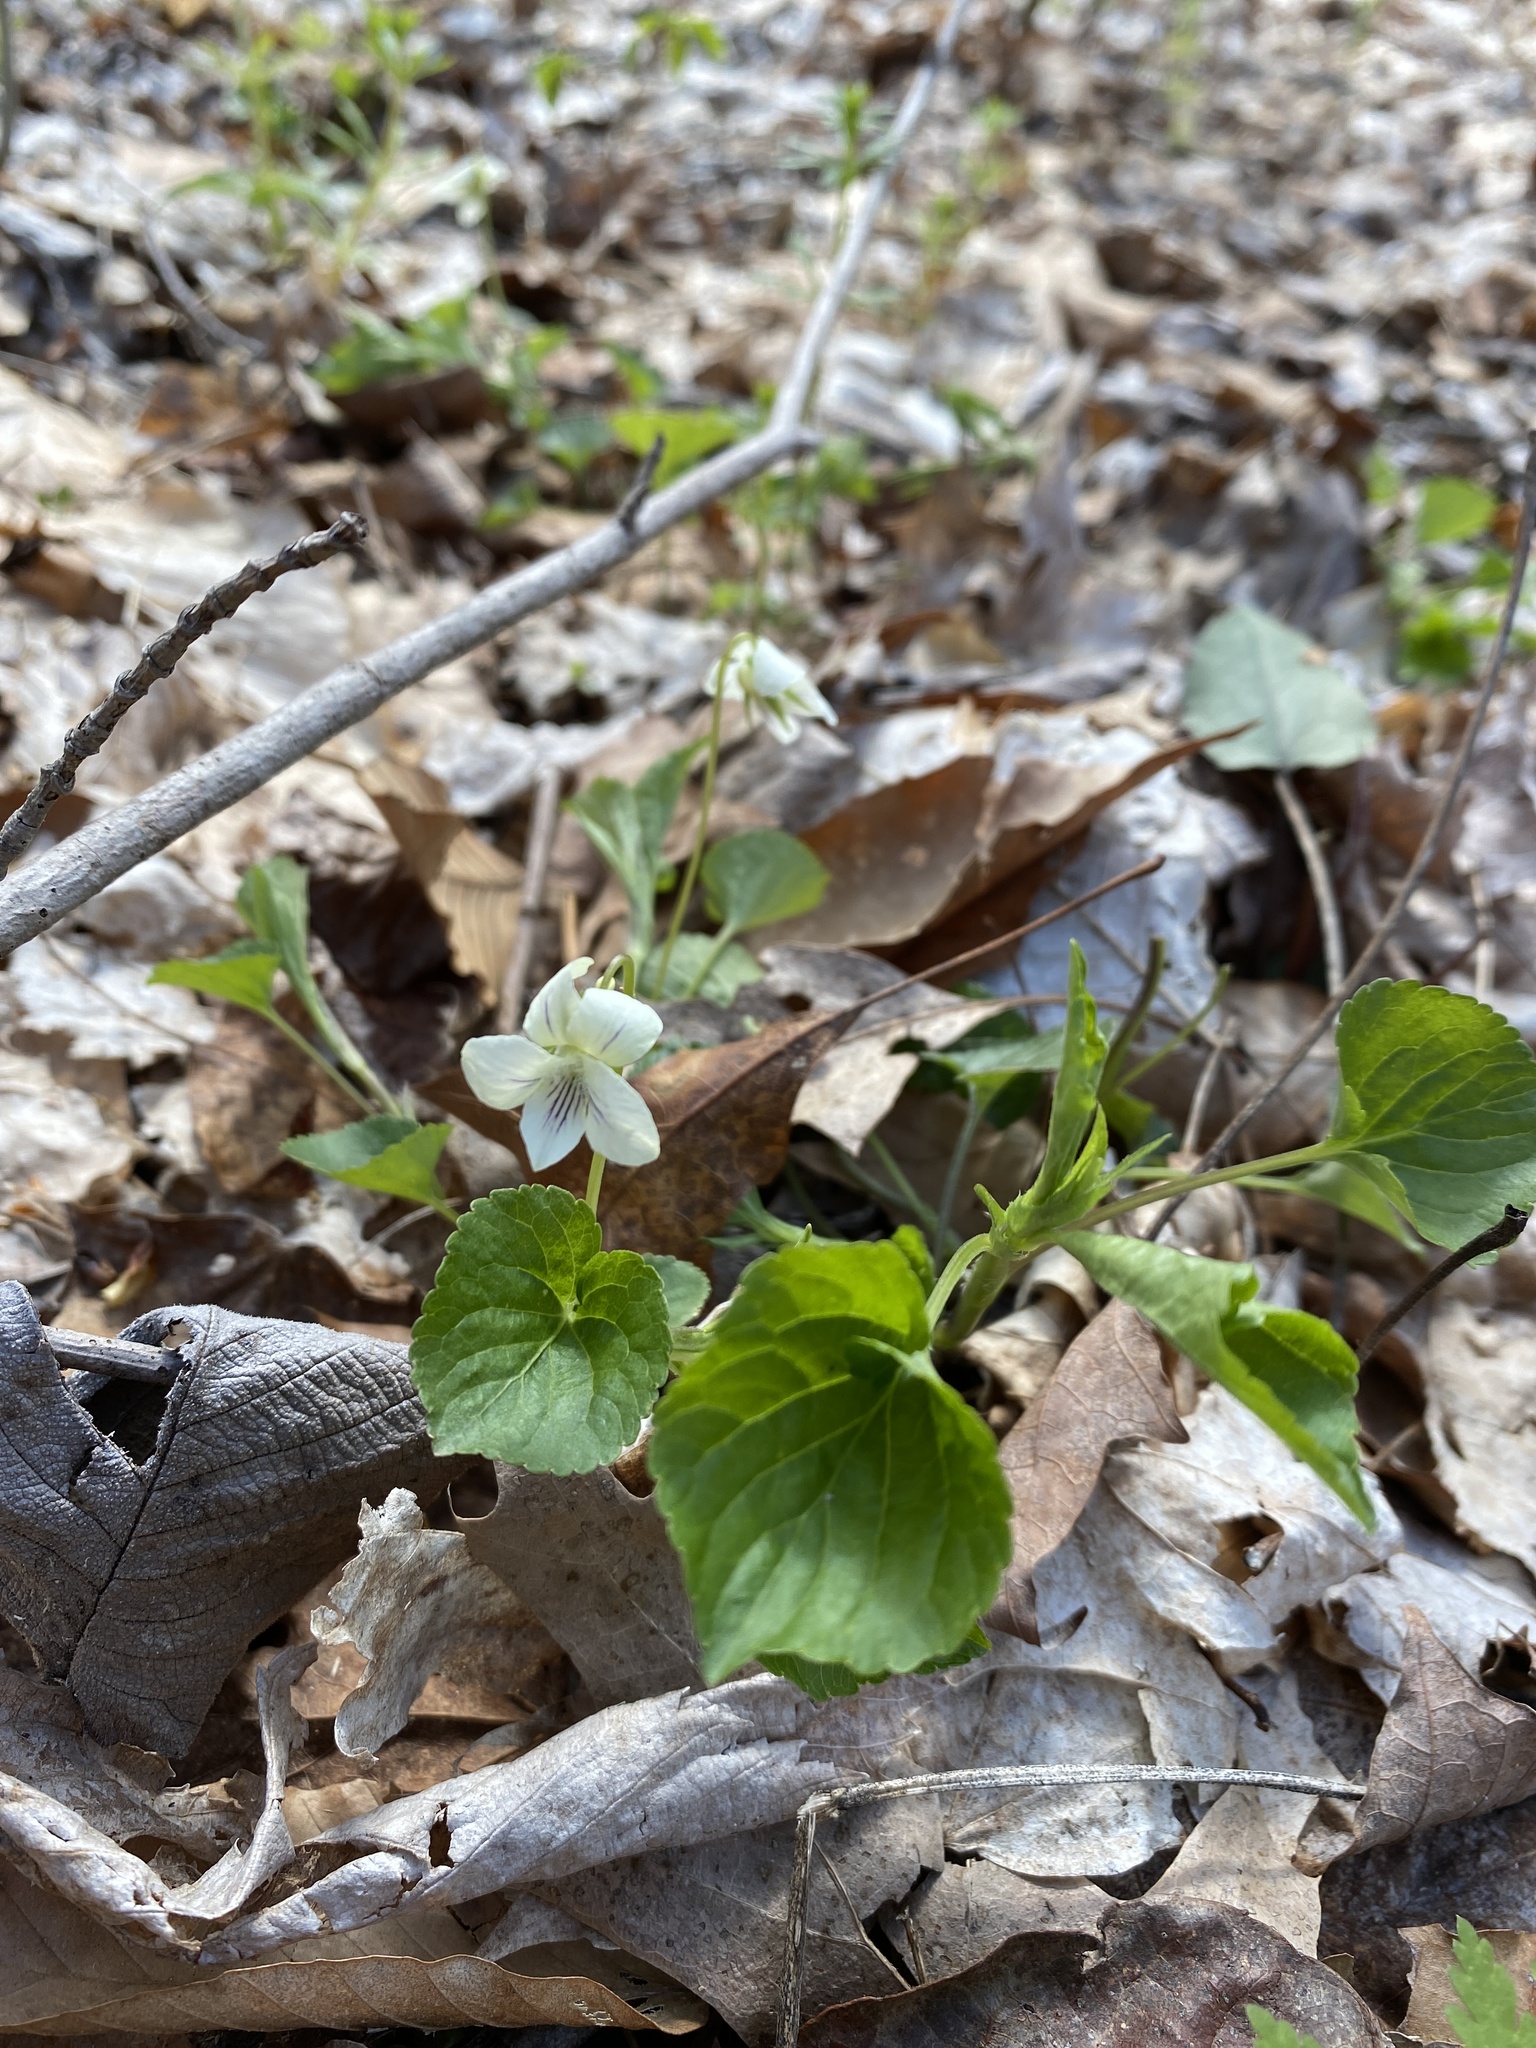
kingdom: Plantae
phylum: Tracheophyta
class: Magnoliopsida
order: Malpighiales
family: Violaceae
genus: Viola
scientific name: Viola striata
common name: Cream violet
